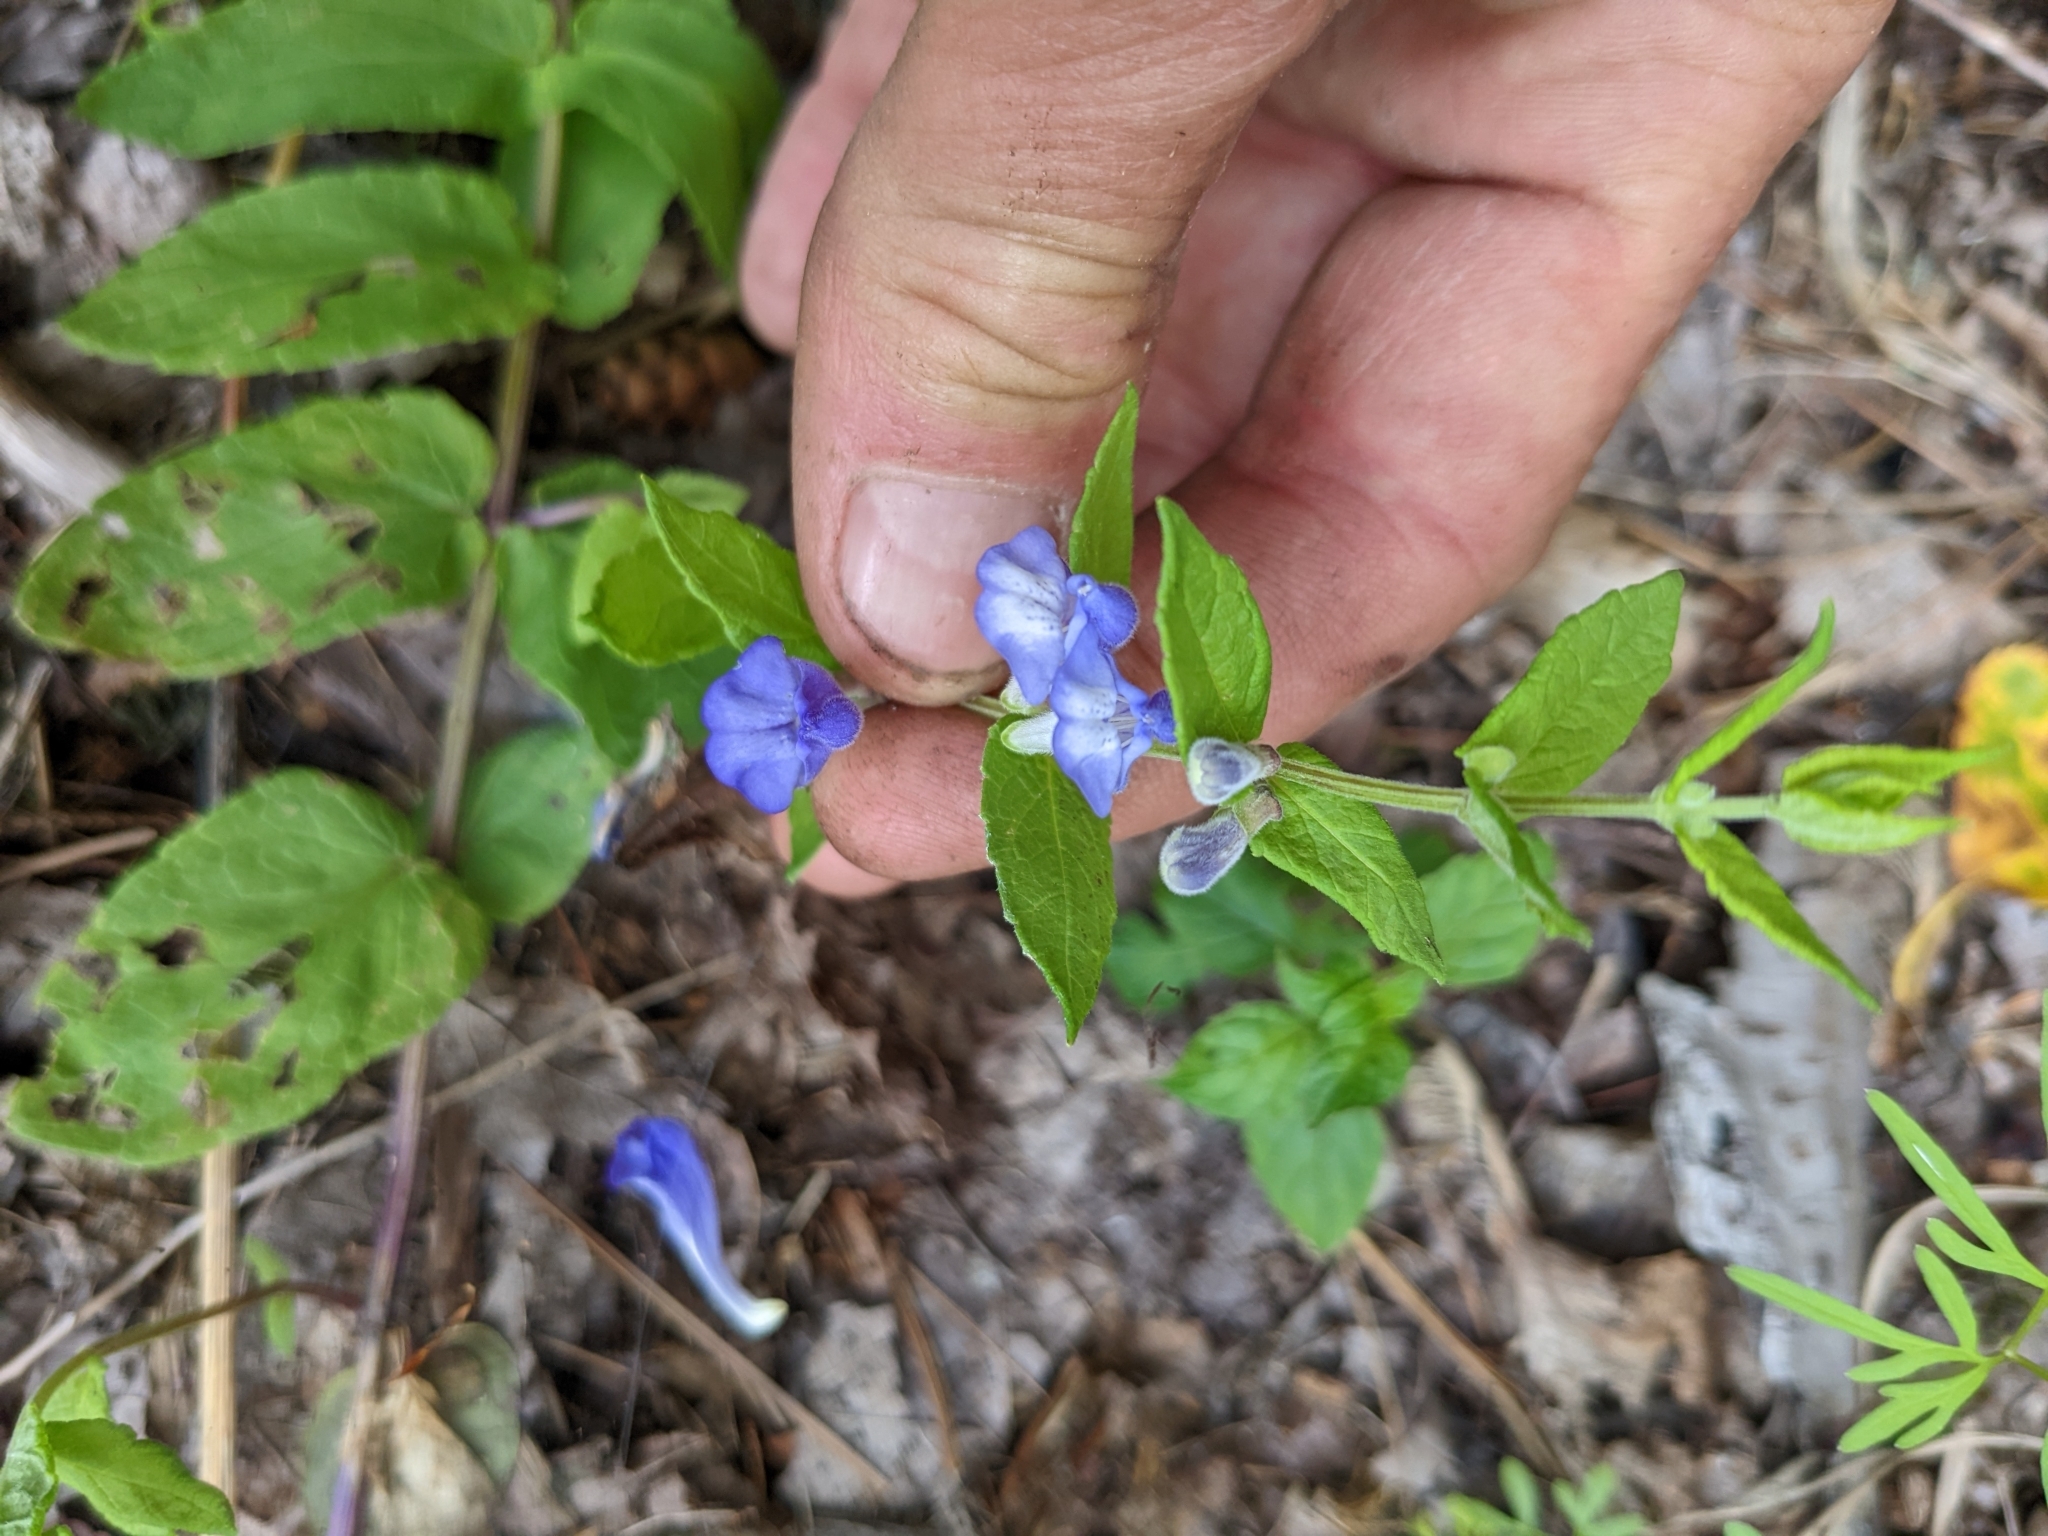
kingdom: Plantae
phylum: Tracheophyta
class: Magnoliopsida
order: Lamiales
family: Lamiaceae
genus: Scutellaria
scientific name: Scutellaria galericulata
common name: Skullcap
